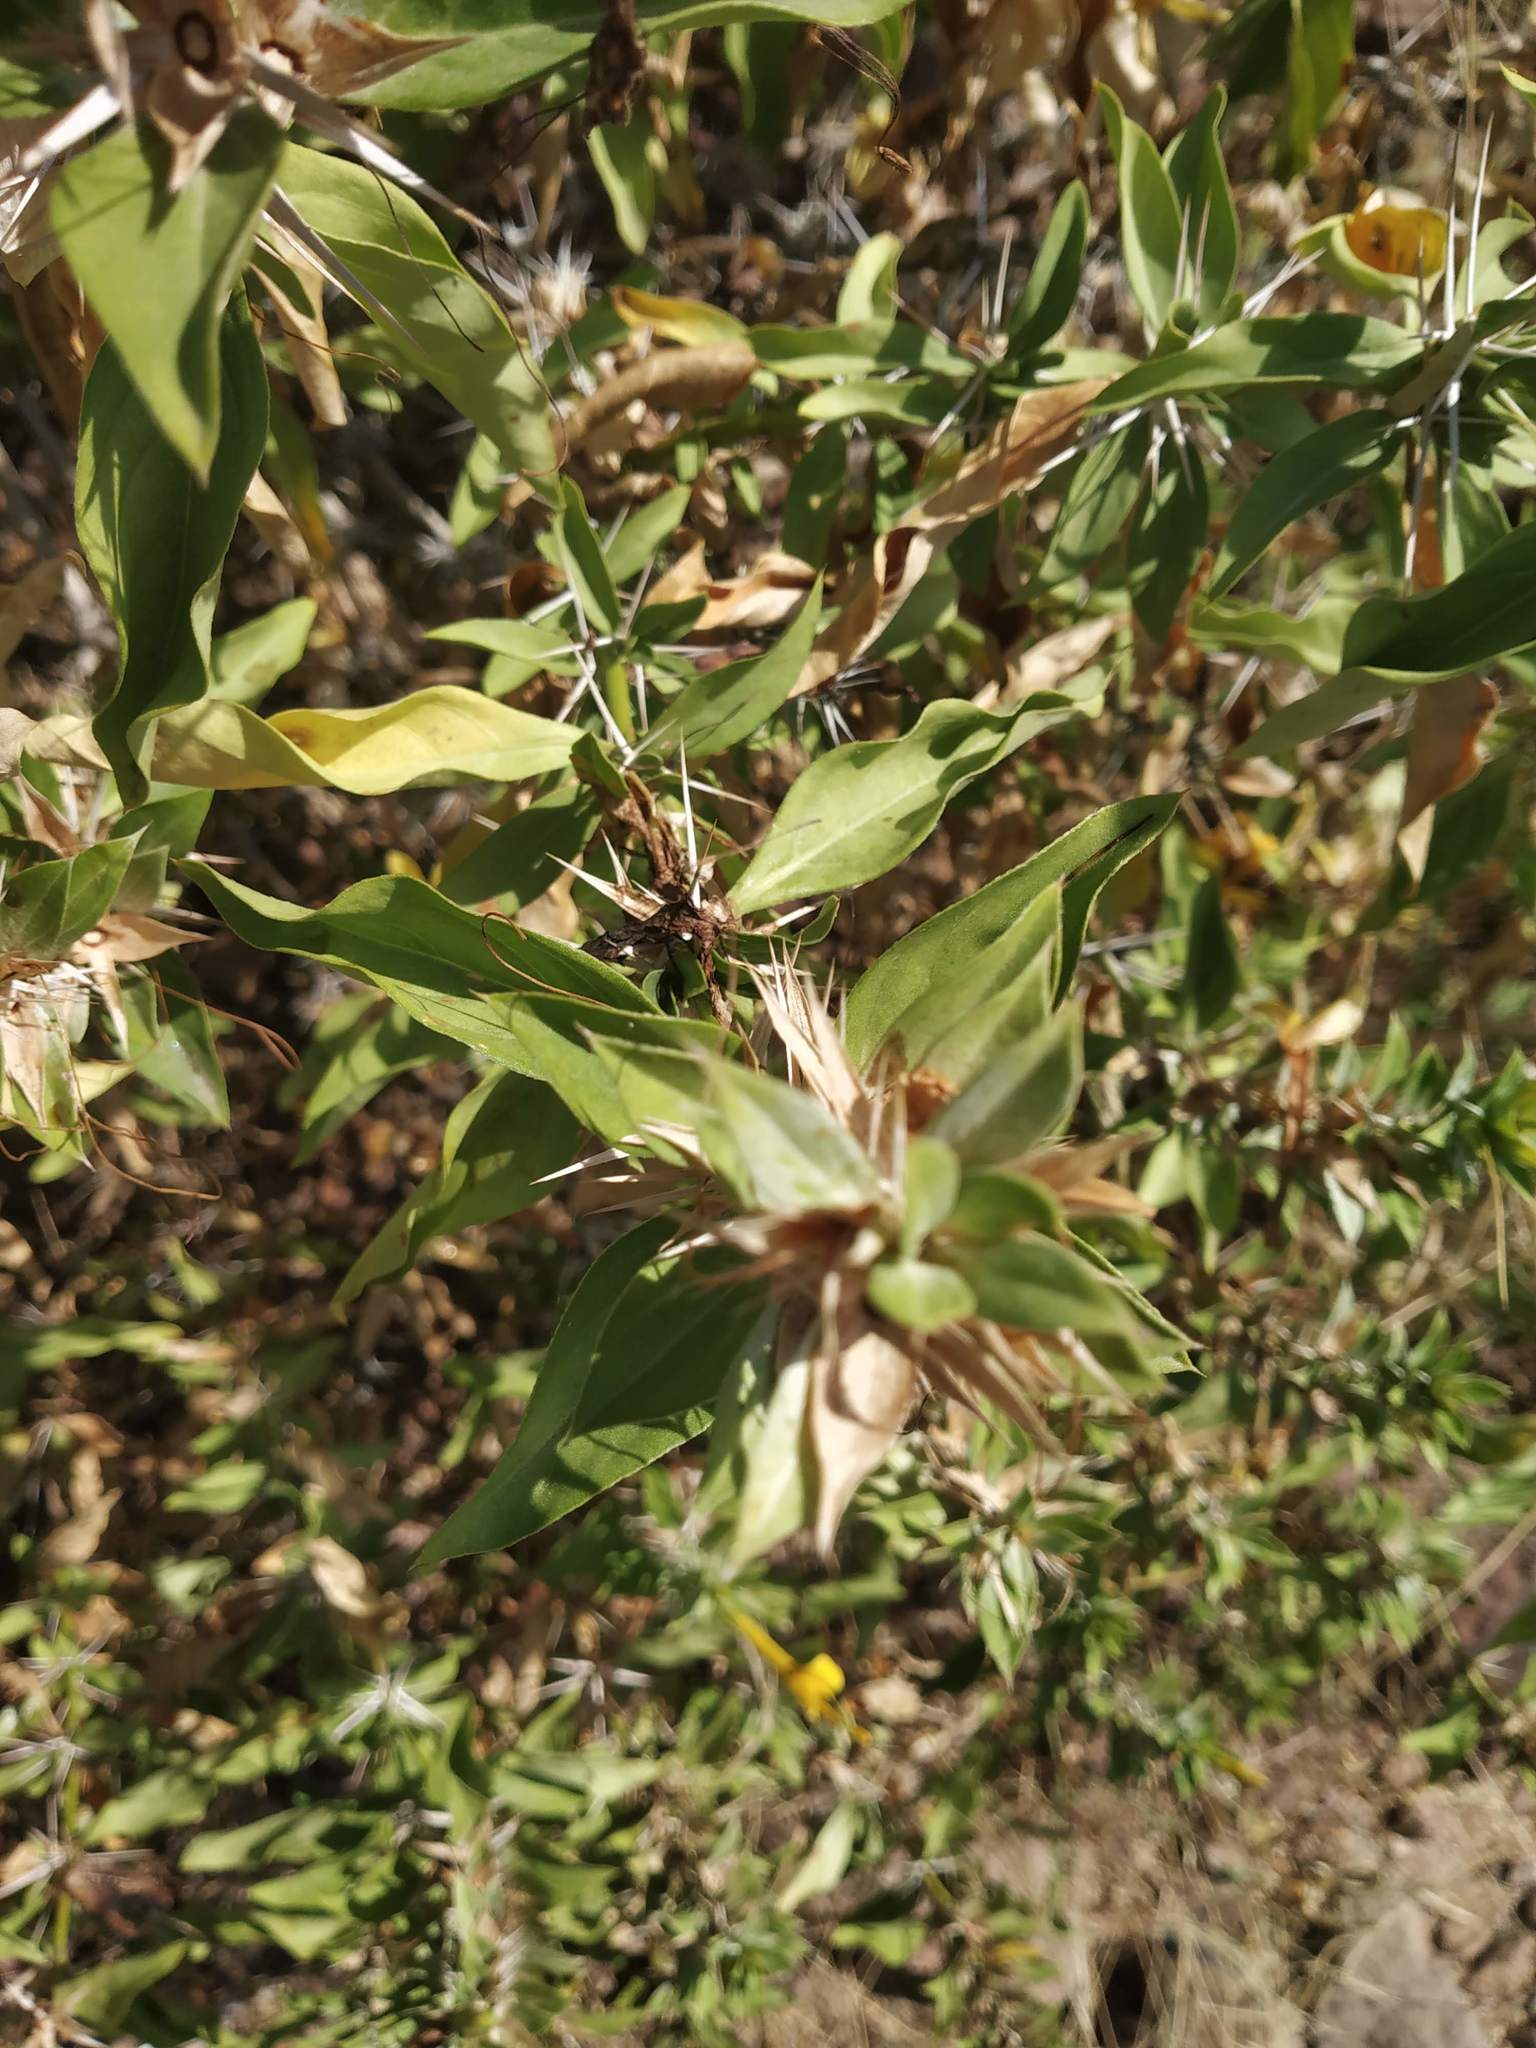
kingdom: Plantae
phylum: Tracheophyta
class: Magnoliopsida
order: Lamiales
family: Acanthaceae
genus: Barleria
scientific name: Barleria prionitis
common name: Barleria
